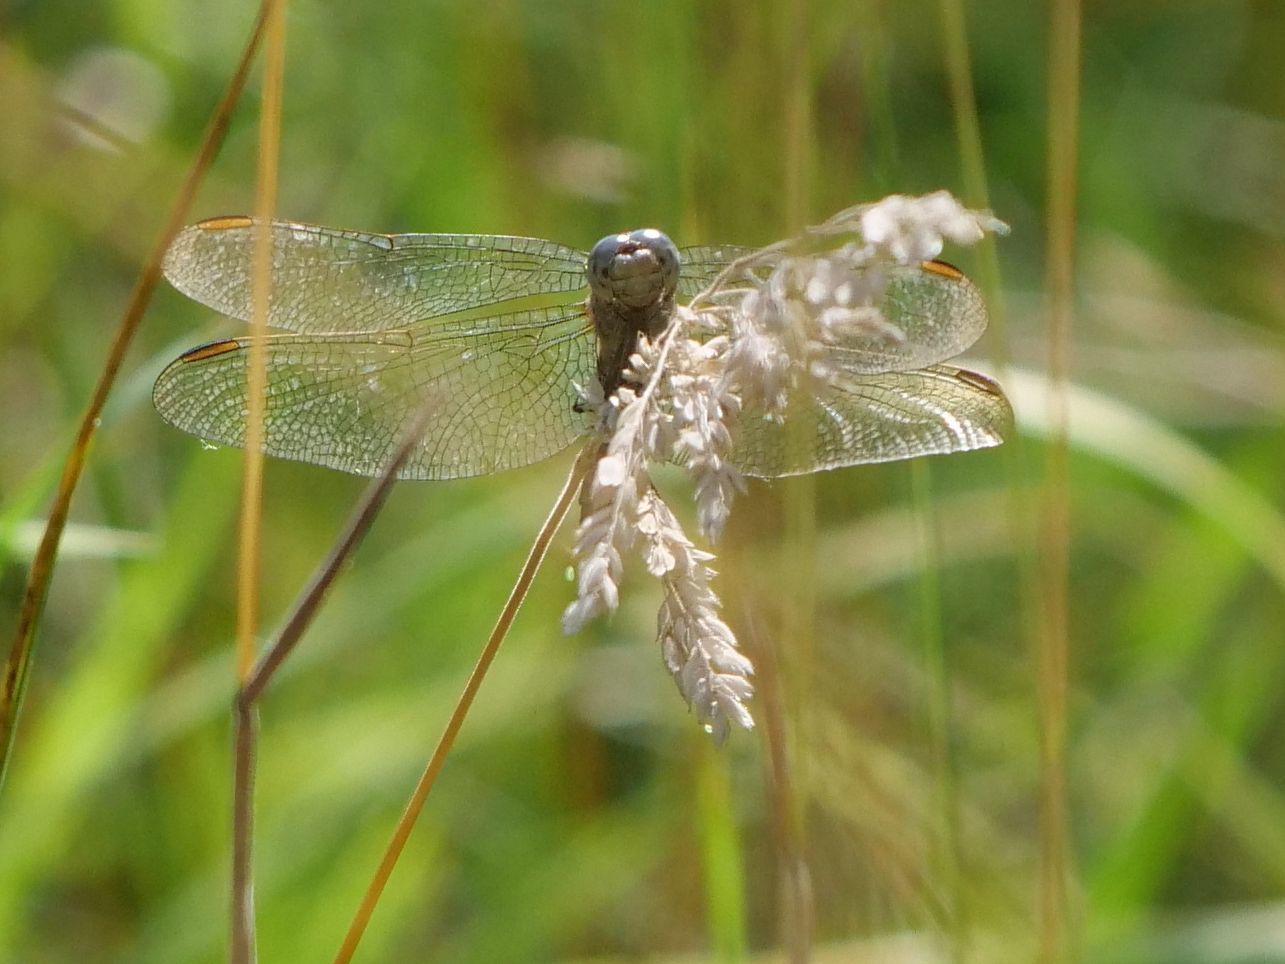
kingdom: Animalia
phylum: Arthropoda
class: Insecta
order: Odonata
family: Libellulidae
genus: Orthetrum
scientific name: Orthetrum coerulescens
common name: Keeled skimmer
